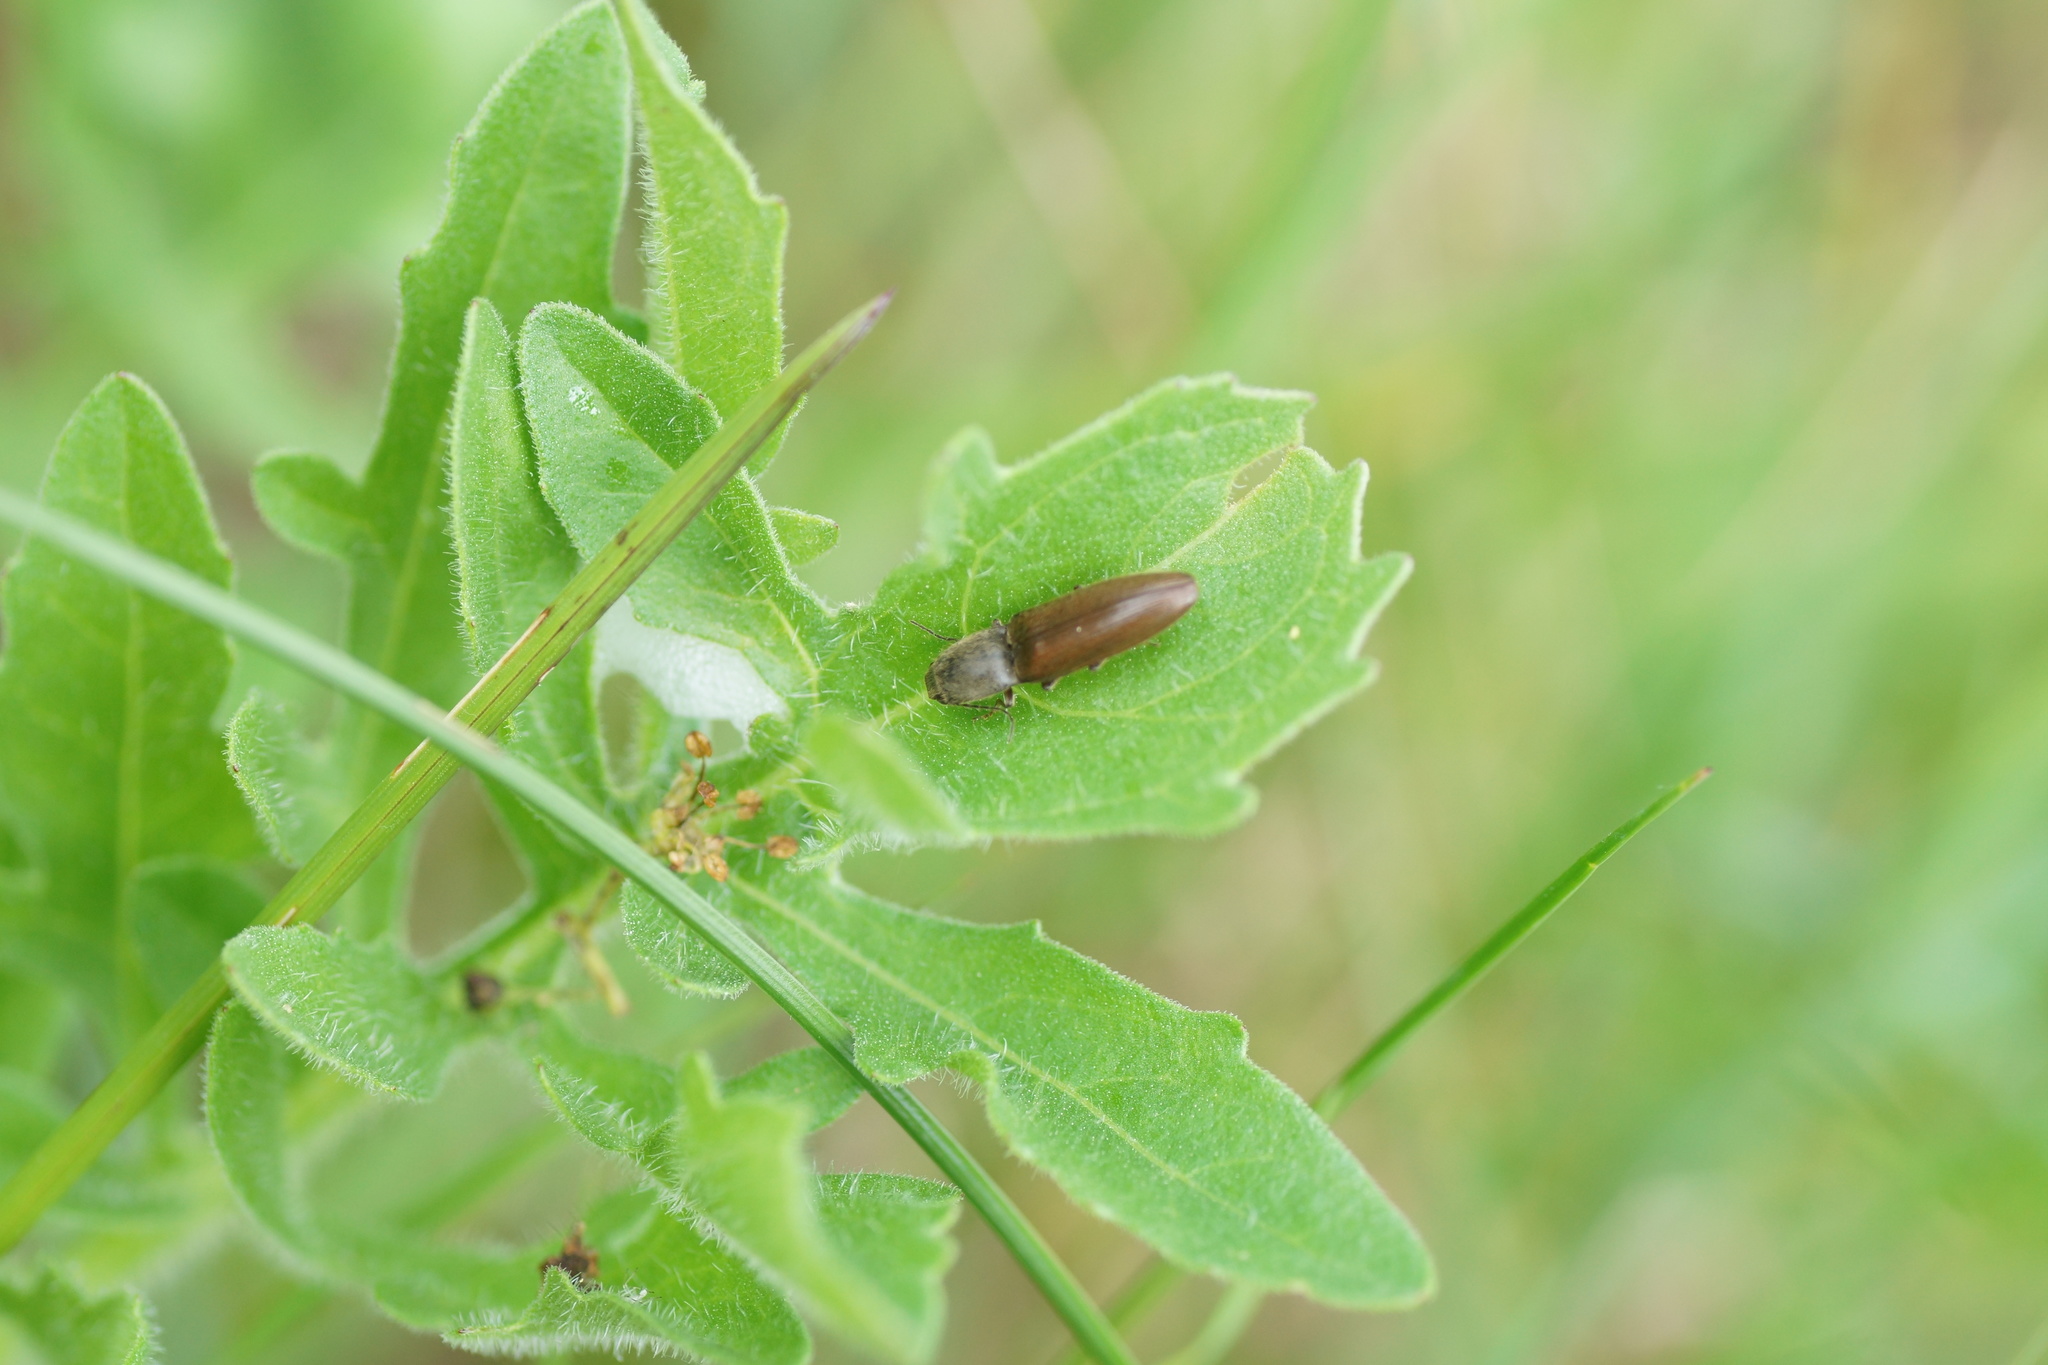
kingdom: Animalia
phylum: Arthropoda
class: Insecta
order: Coleoptera
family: Elateridae
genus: Athous
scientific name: Athous haemorrhoidalis
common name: Red-brown click beetle
